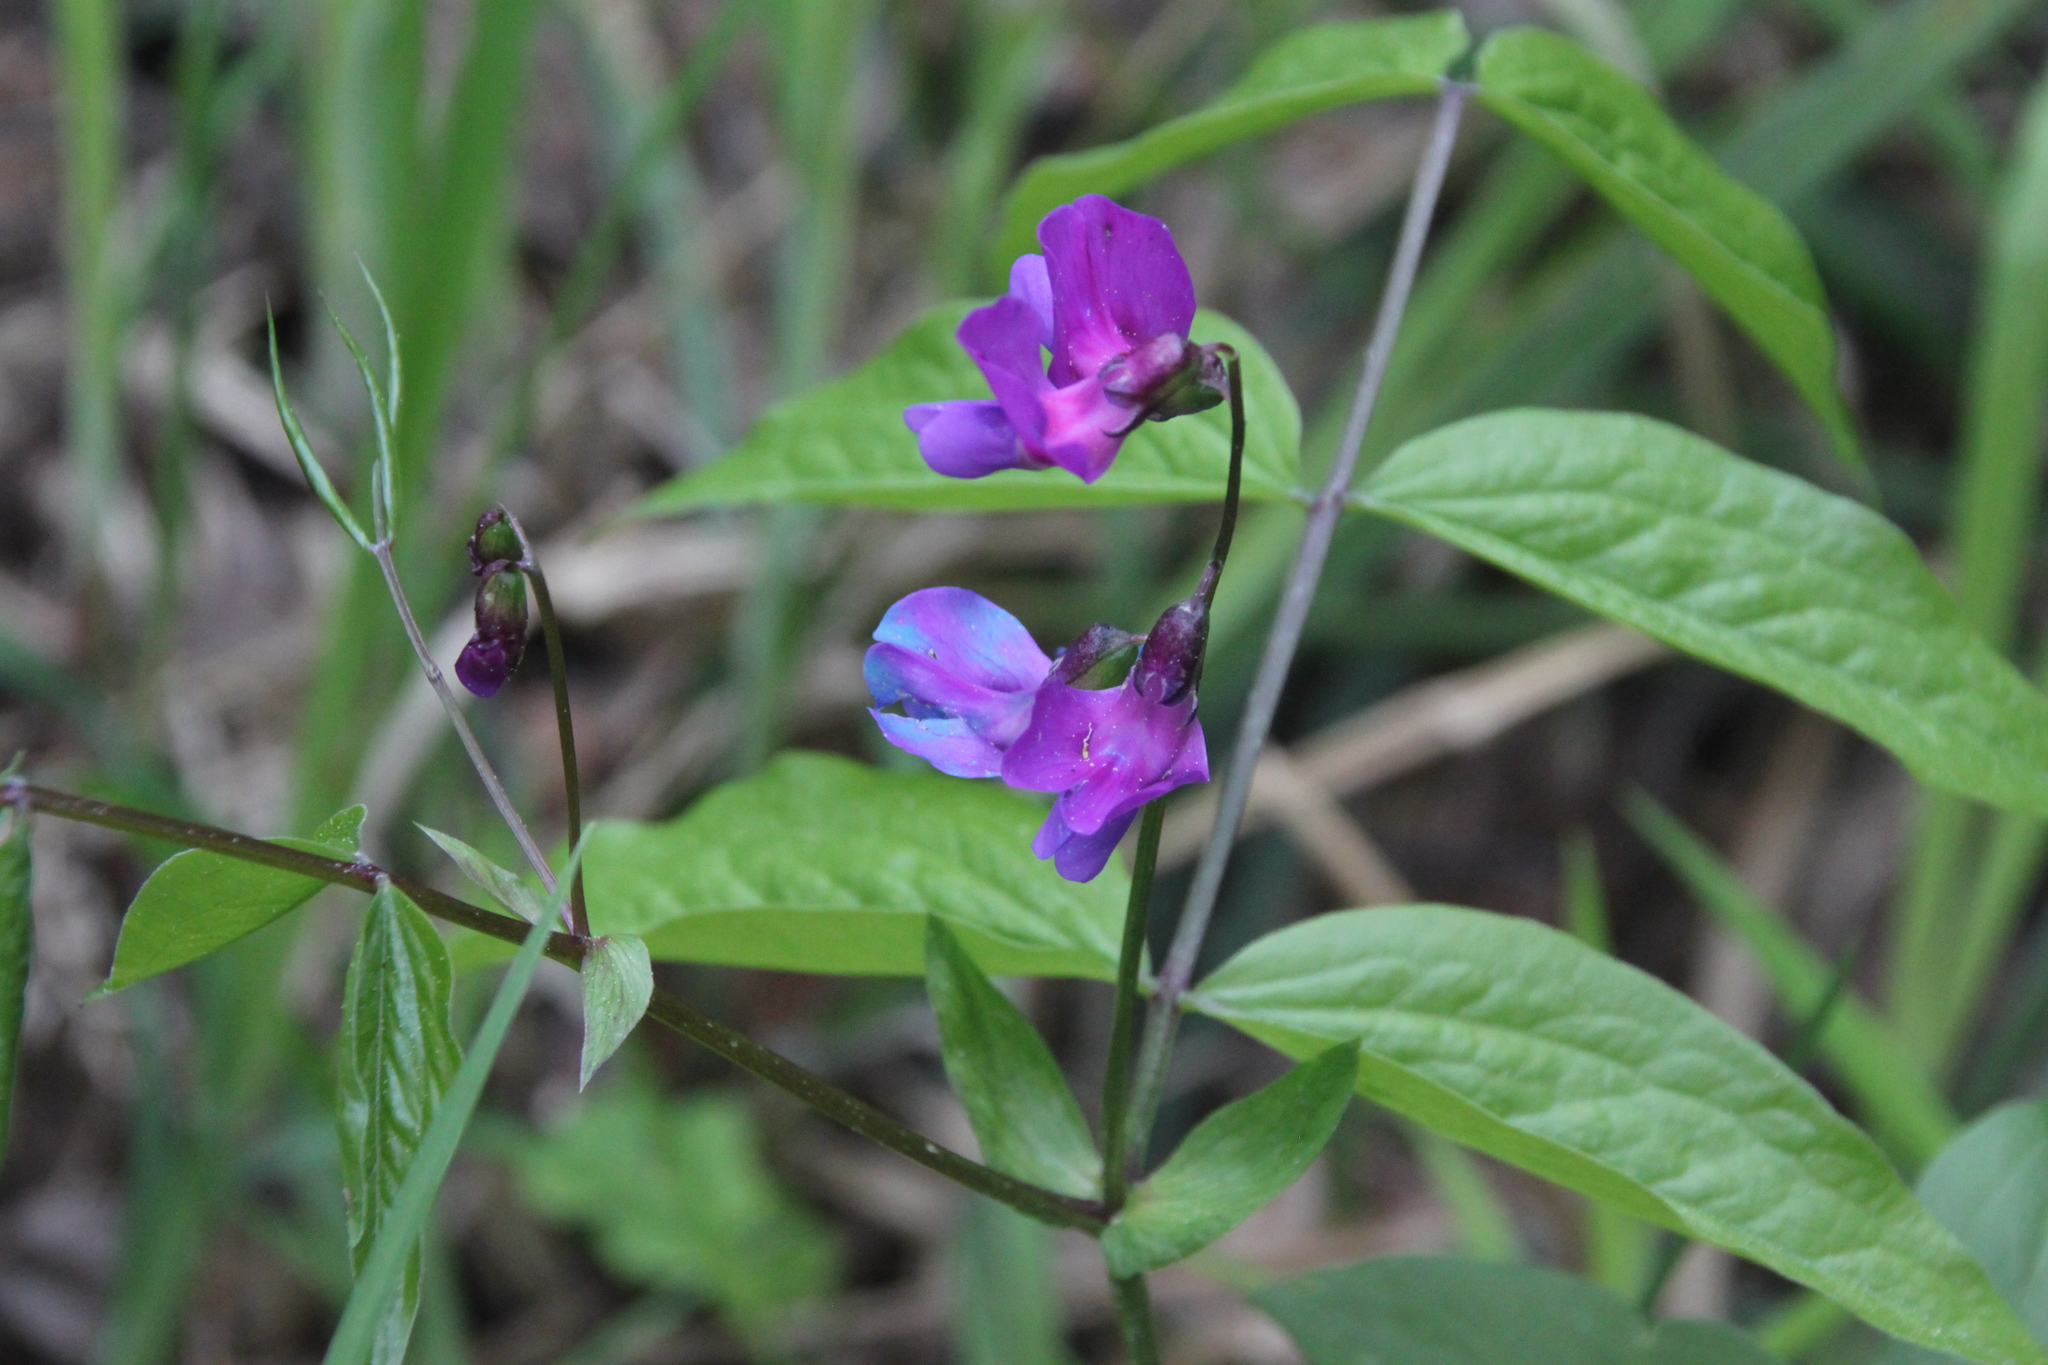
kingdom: Plantae
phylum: Tracheophyta
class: Magnoliopsida
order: Fabales
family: Fabaceae
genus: Lathyrus
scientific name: Lathyrus vernus
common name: Spring pea
